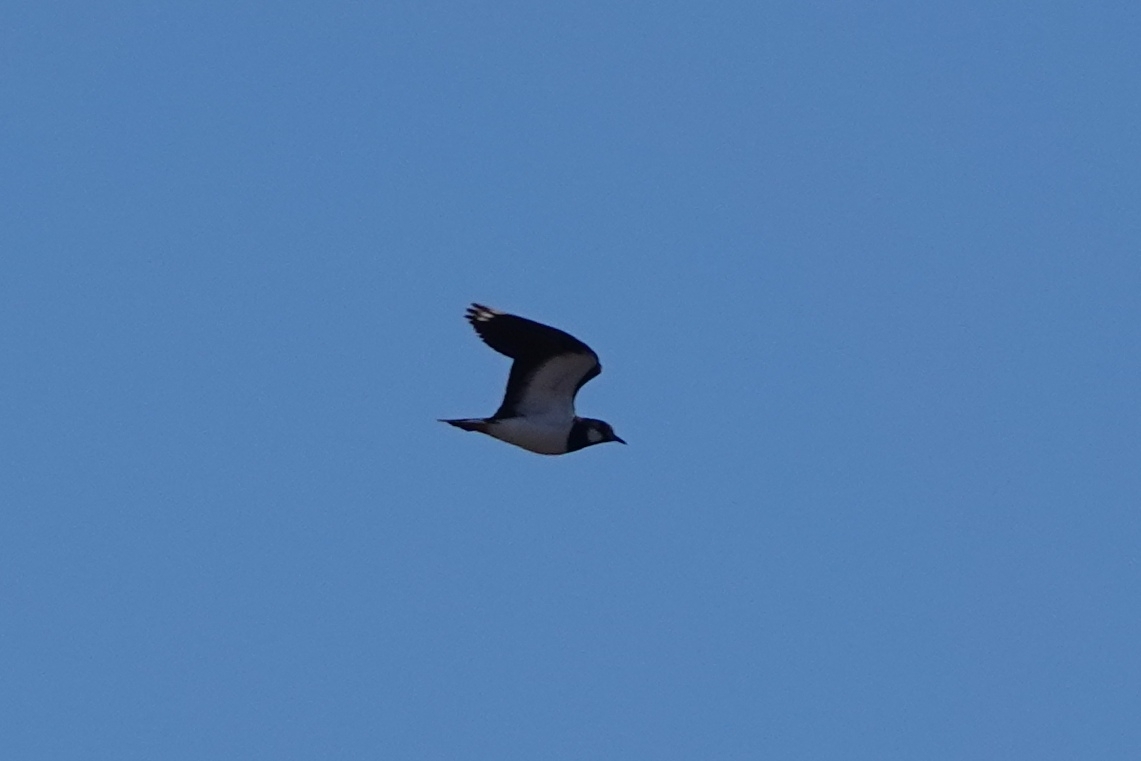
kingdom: Animalia
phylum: Chordata
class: Aves
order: Charadriiformes
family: Charadriidae
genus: Vanellus
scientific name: Vanellus vanellus
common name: Northern lapwing
